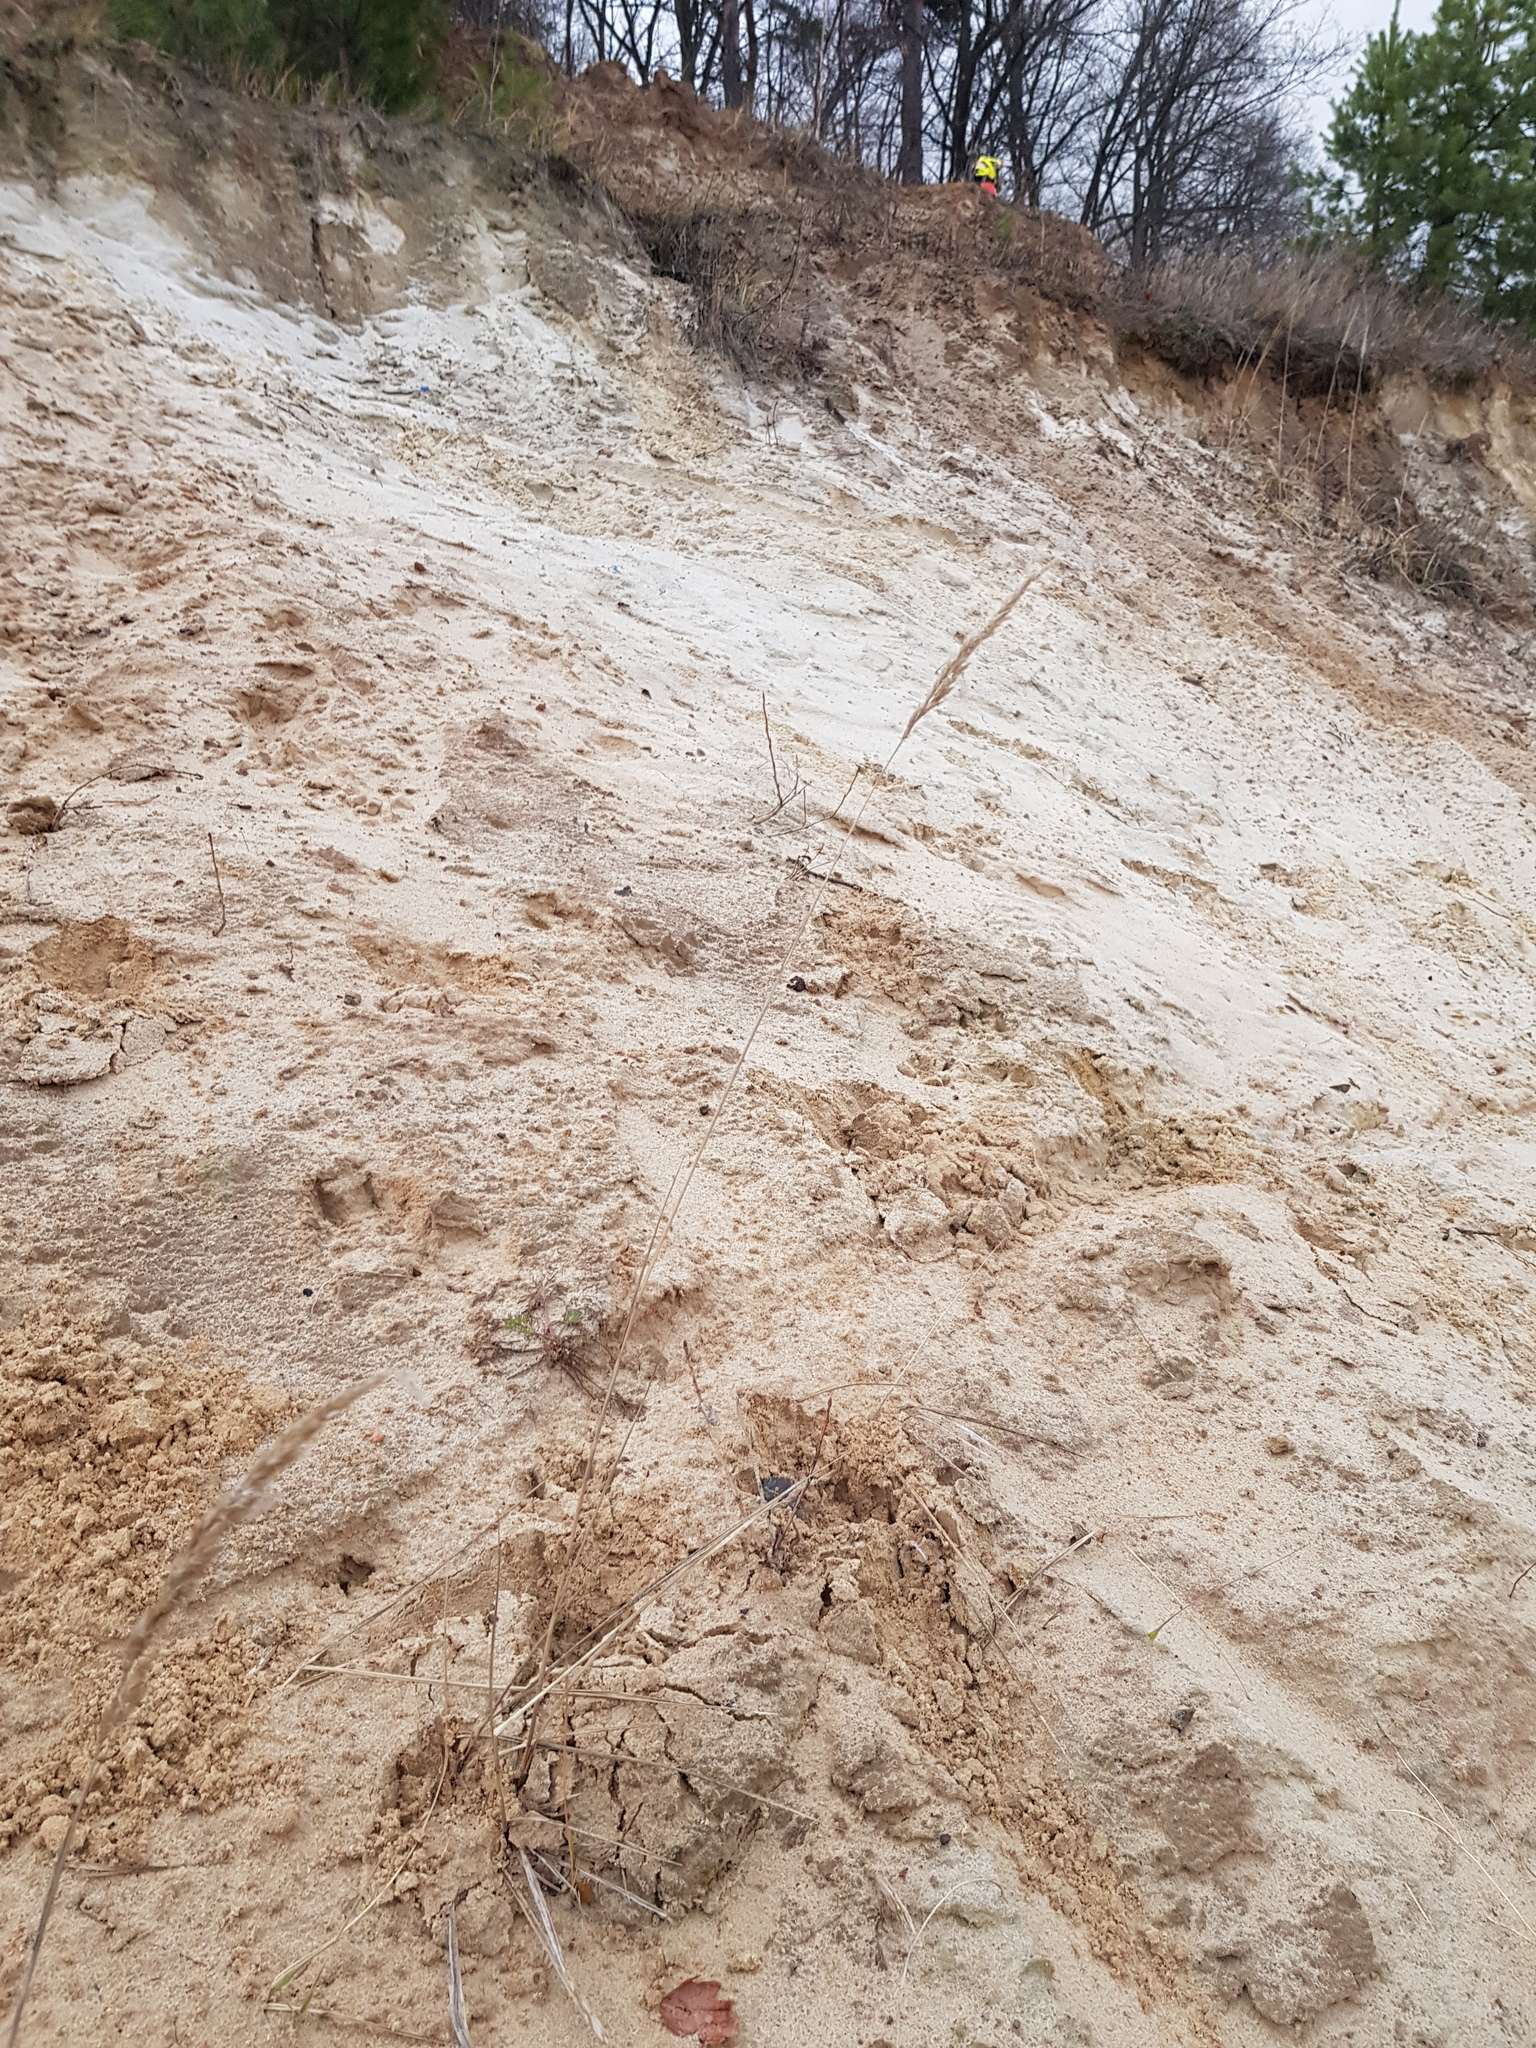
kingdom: Plantae
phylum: Tracheophyta
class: Liliopsida
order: Poales
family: Poaceae
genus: Calamagrostis
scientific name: Calamagrostis epigejos
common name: Wood small-reed
